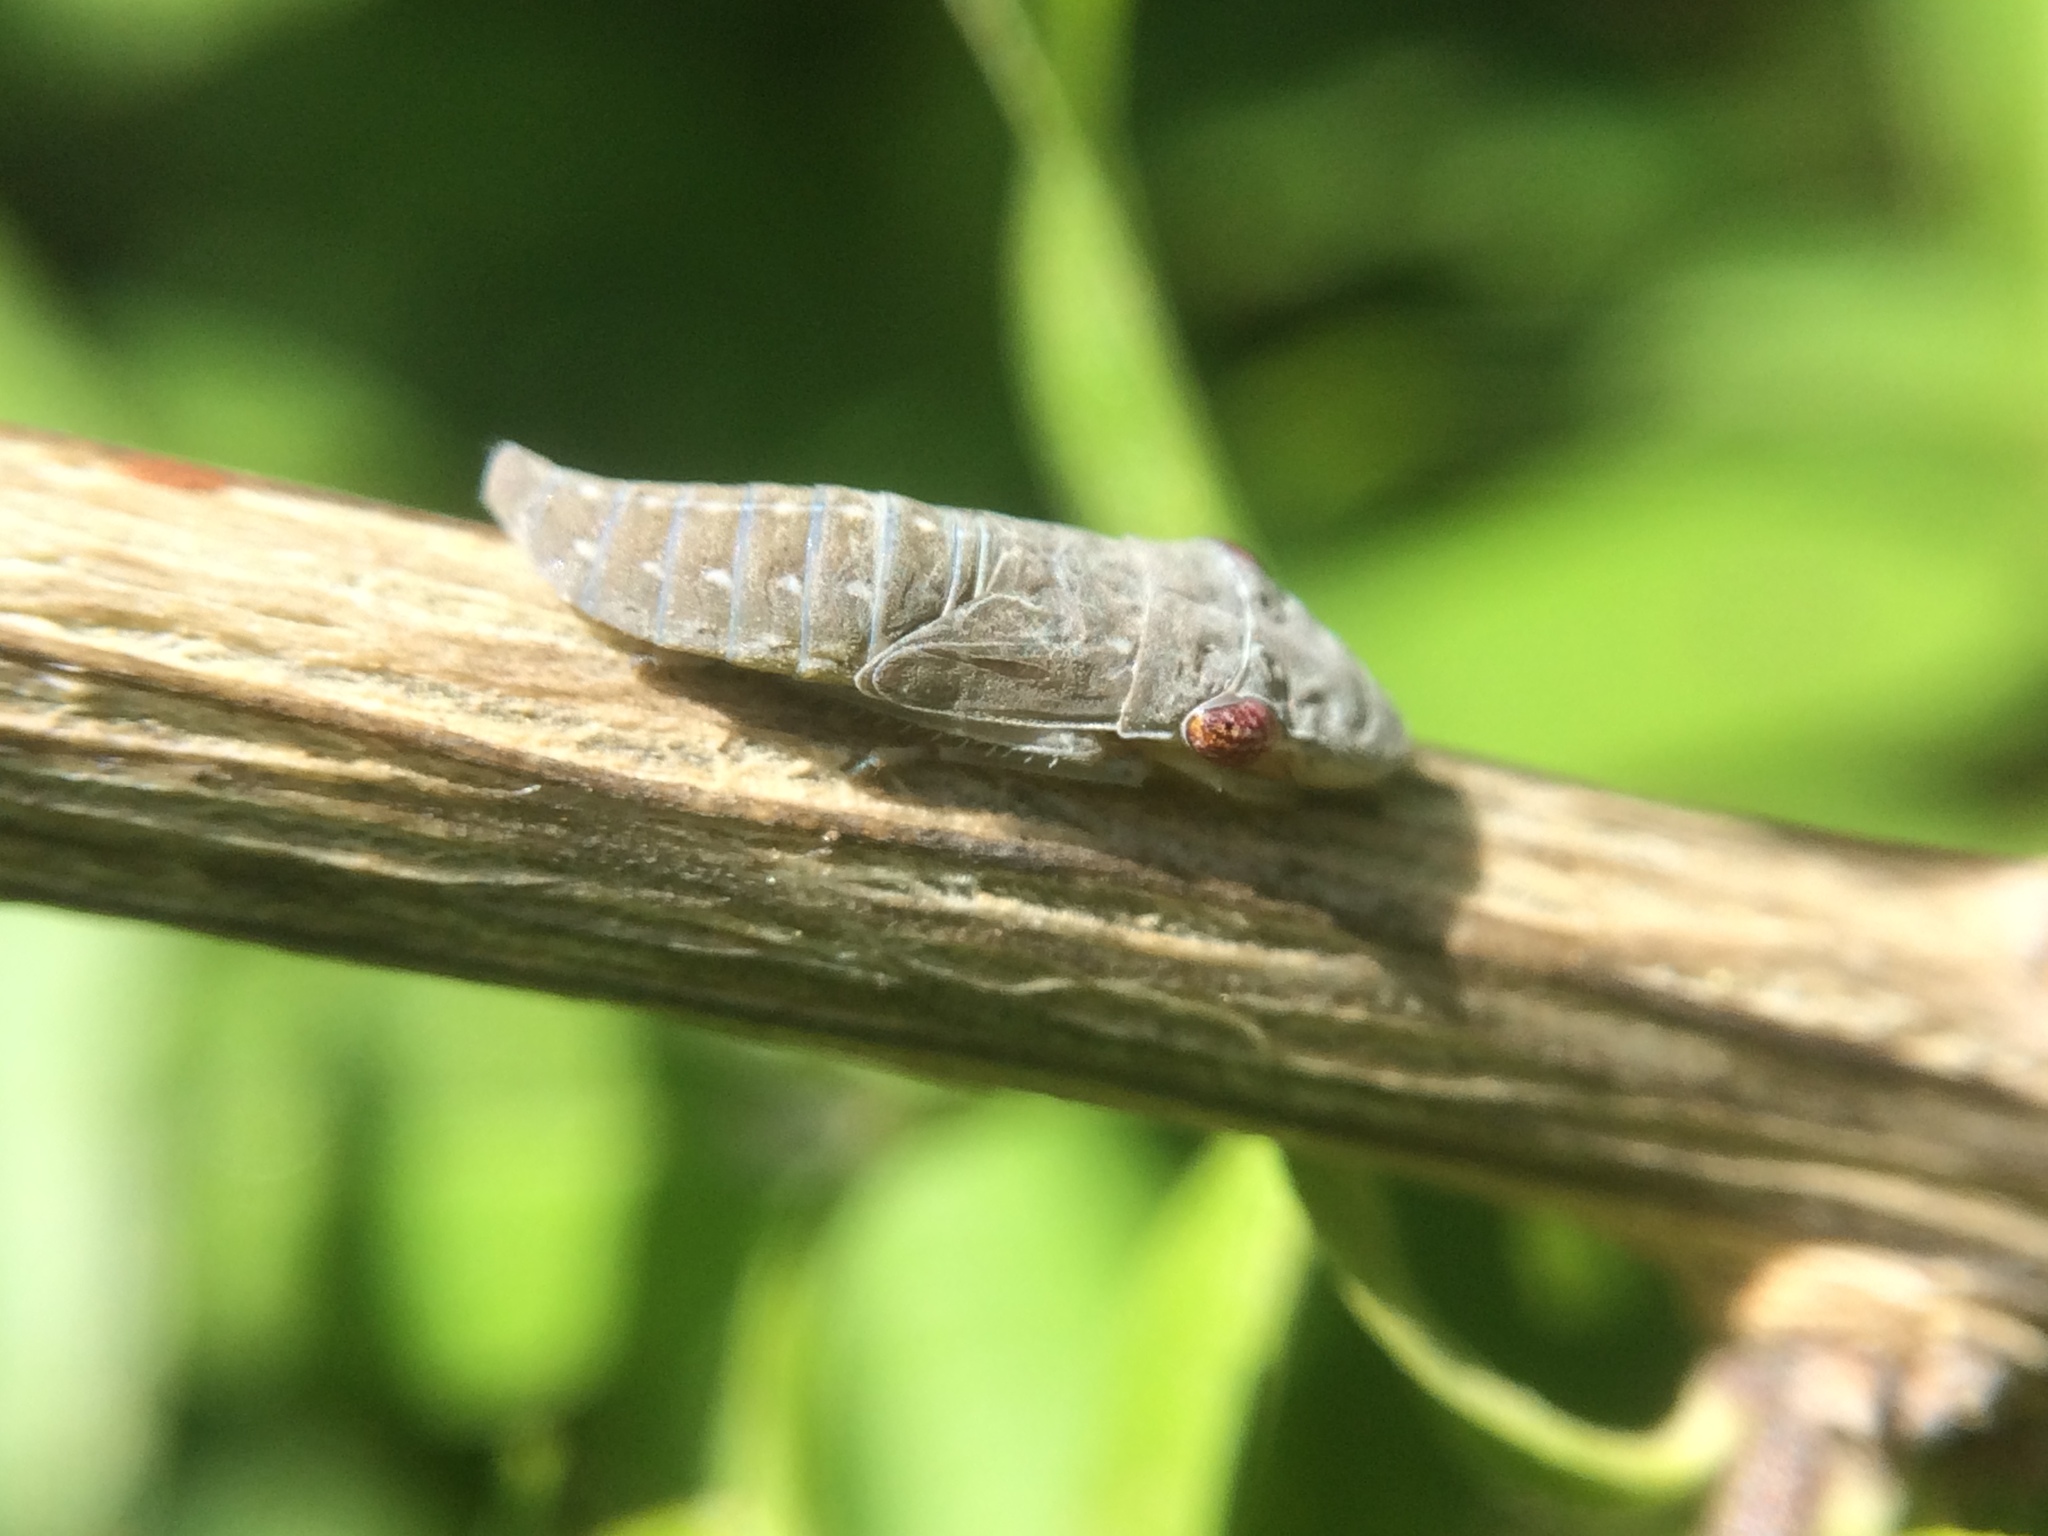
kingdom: Animalia
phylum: Arthropoda
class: Insecta
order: Hemiptera
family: Cicadellidae
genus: Homalodisca
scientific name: Homalodisca
